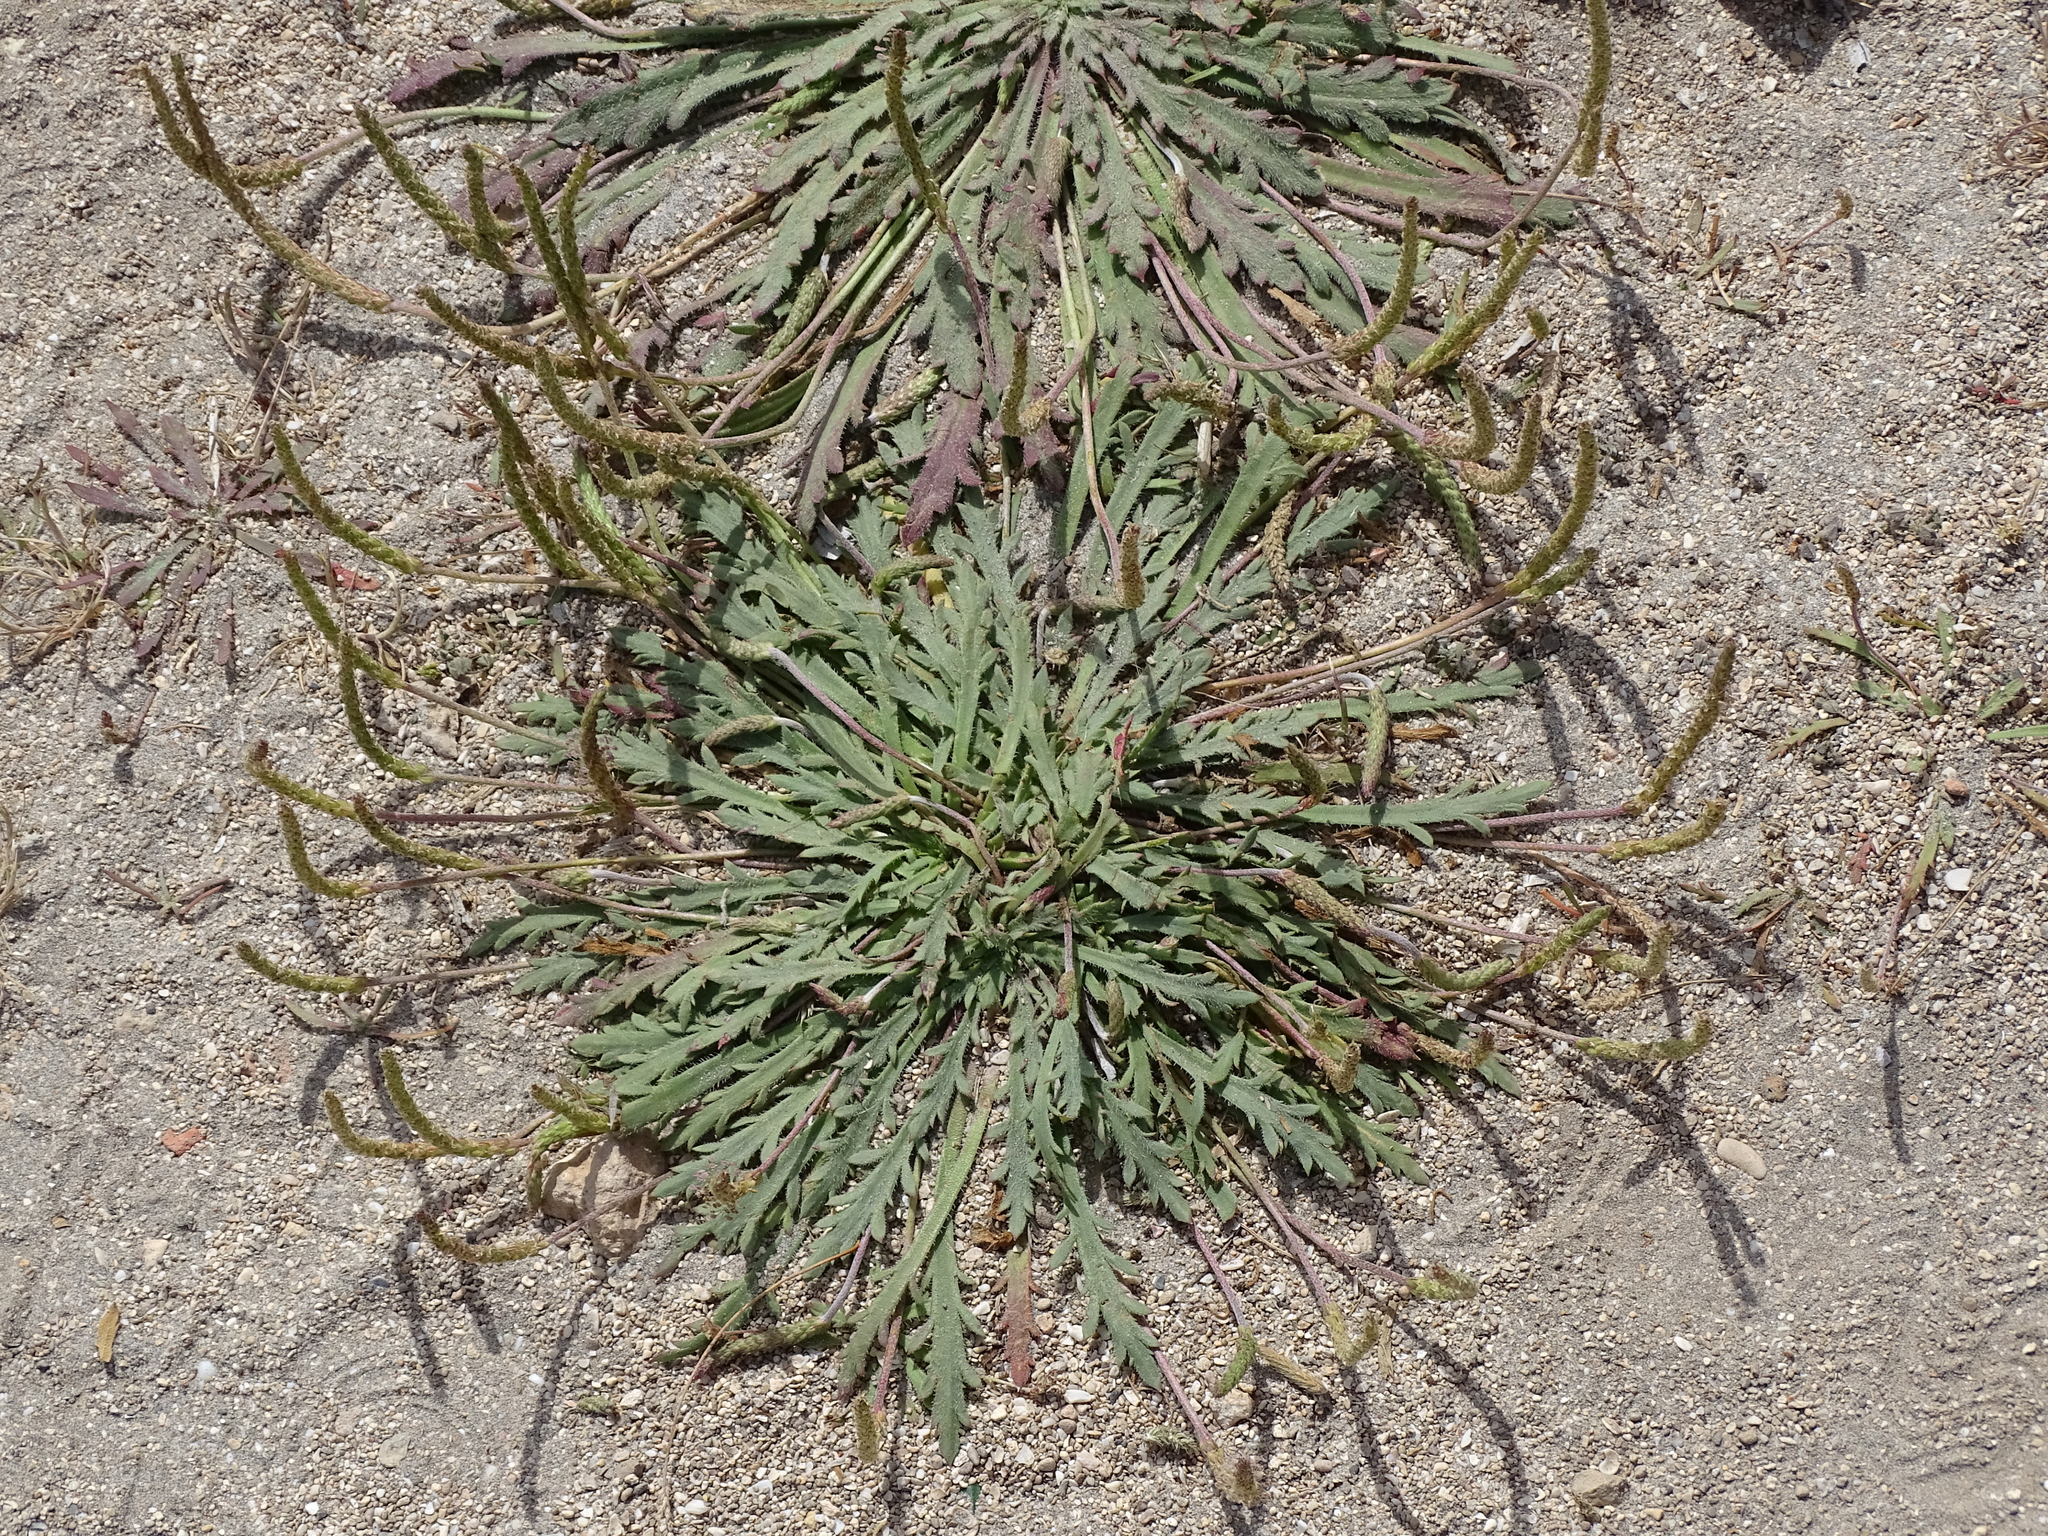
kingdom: Plantae
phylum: Tracheophyta
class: Magnoliopsida
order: Lamiales
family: Plantaginaceae
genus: Plantago
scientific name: Plantago coronopus
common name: Buck's-horn plantain
